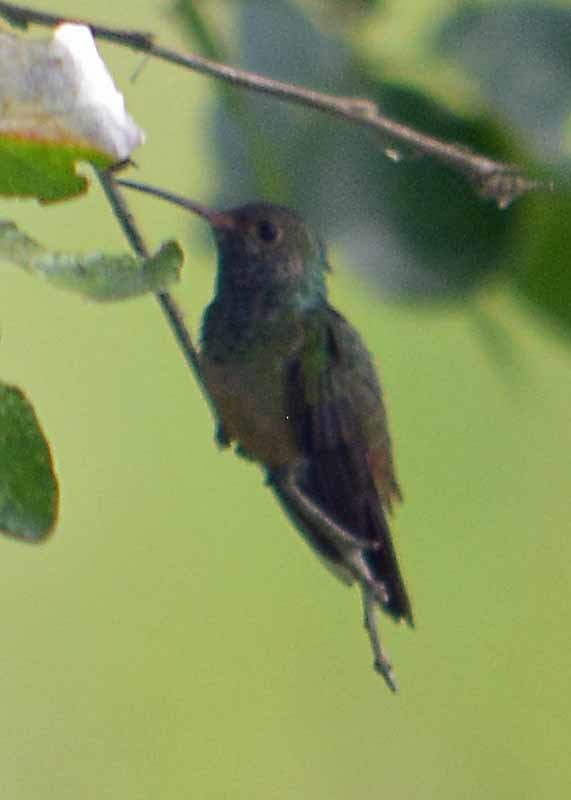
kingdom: Animalia
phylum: Chordata
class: Aves
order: Apodiformes
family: Trochilidae
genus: Amazilia
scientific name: Amazilia yucatanensis
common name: Buff-bellied hummingbird
